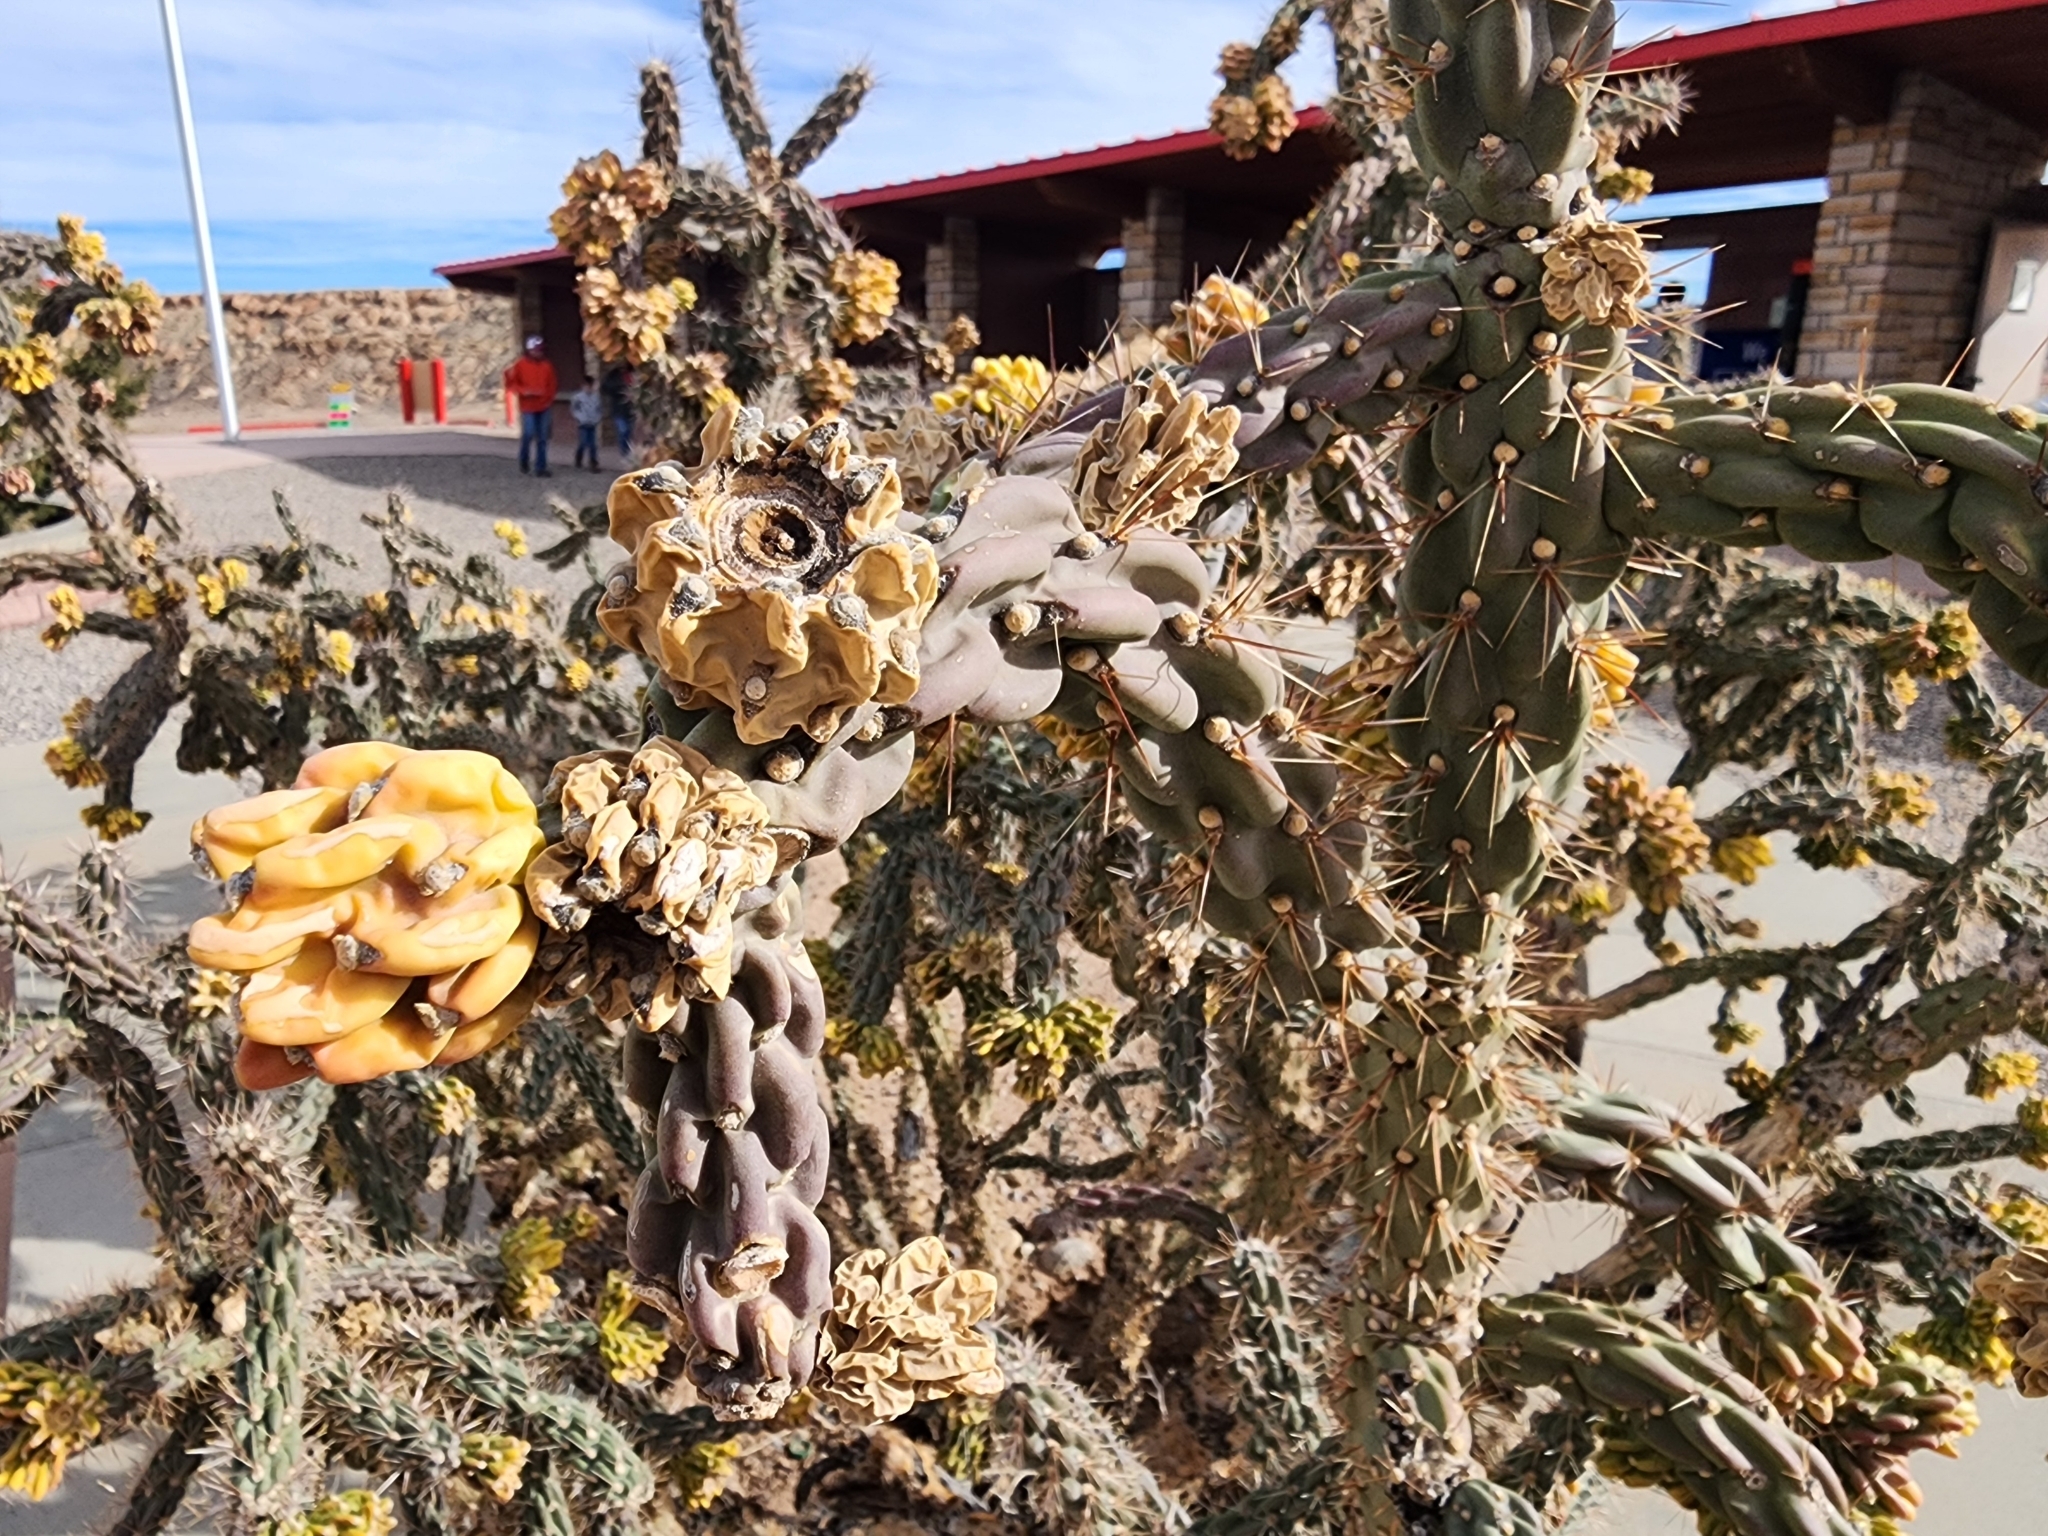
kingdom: Plantae
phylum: Tracheophyta
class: Magnoliopsida
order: Caryophyllales
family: Cactaceae
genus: Cylindropuntia
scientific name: Cylindropuntia imbricata
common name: Candelabrum cactus
